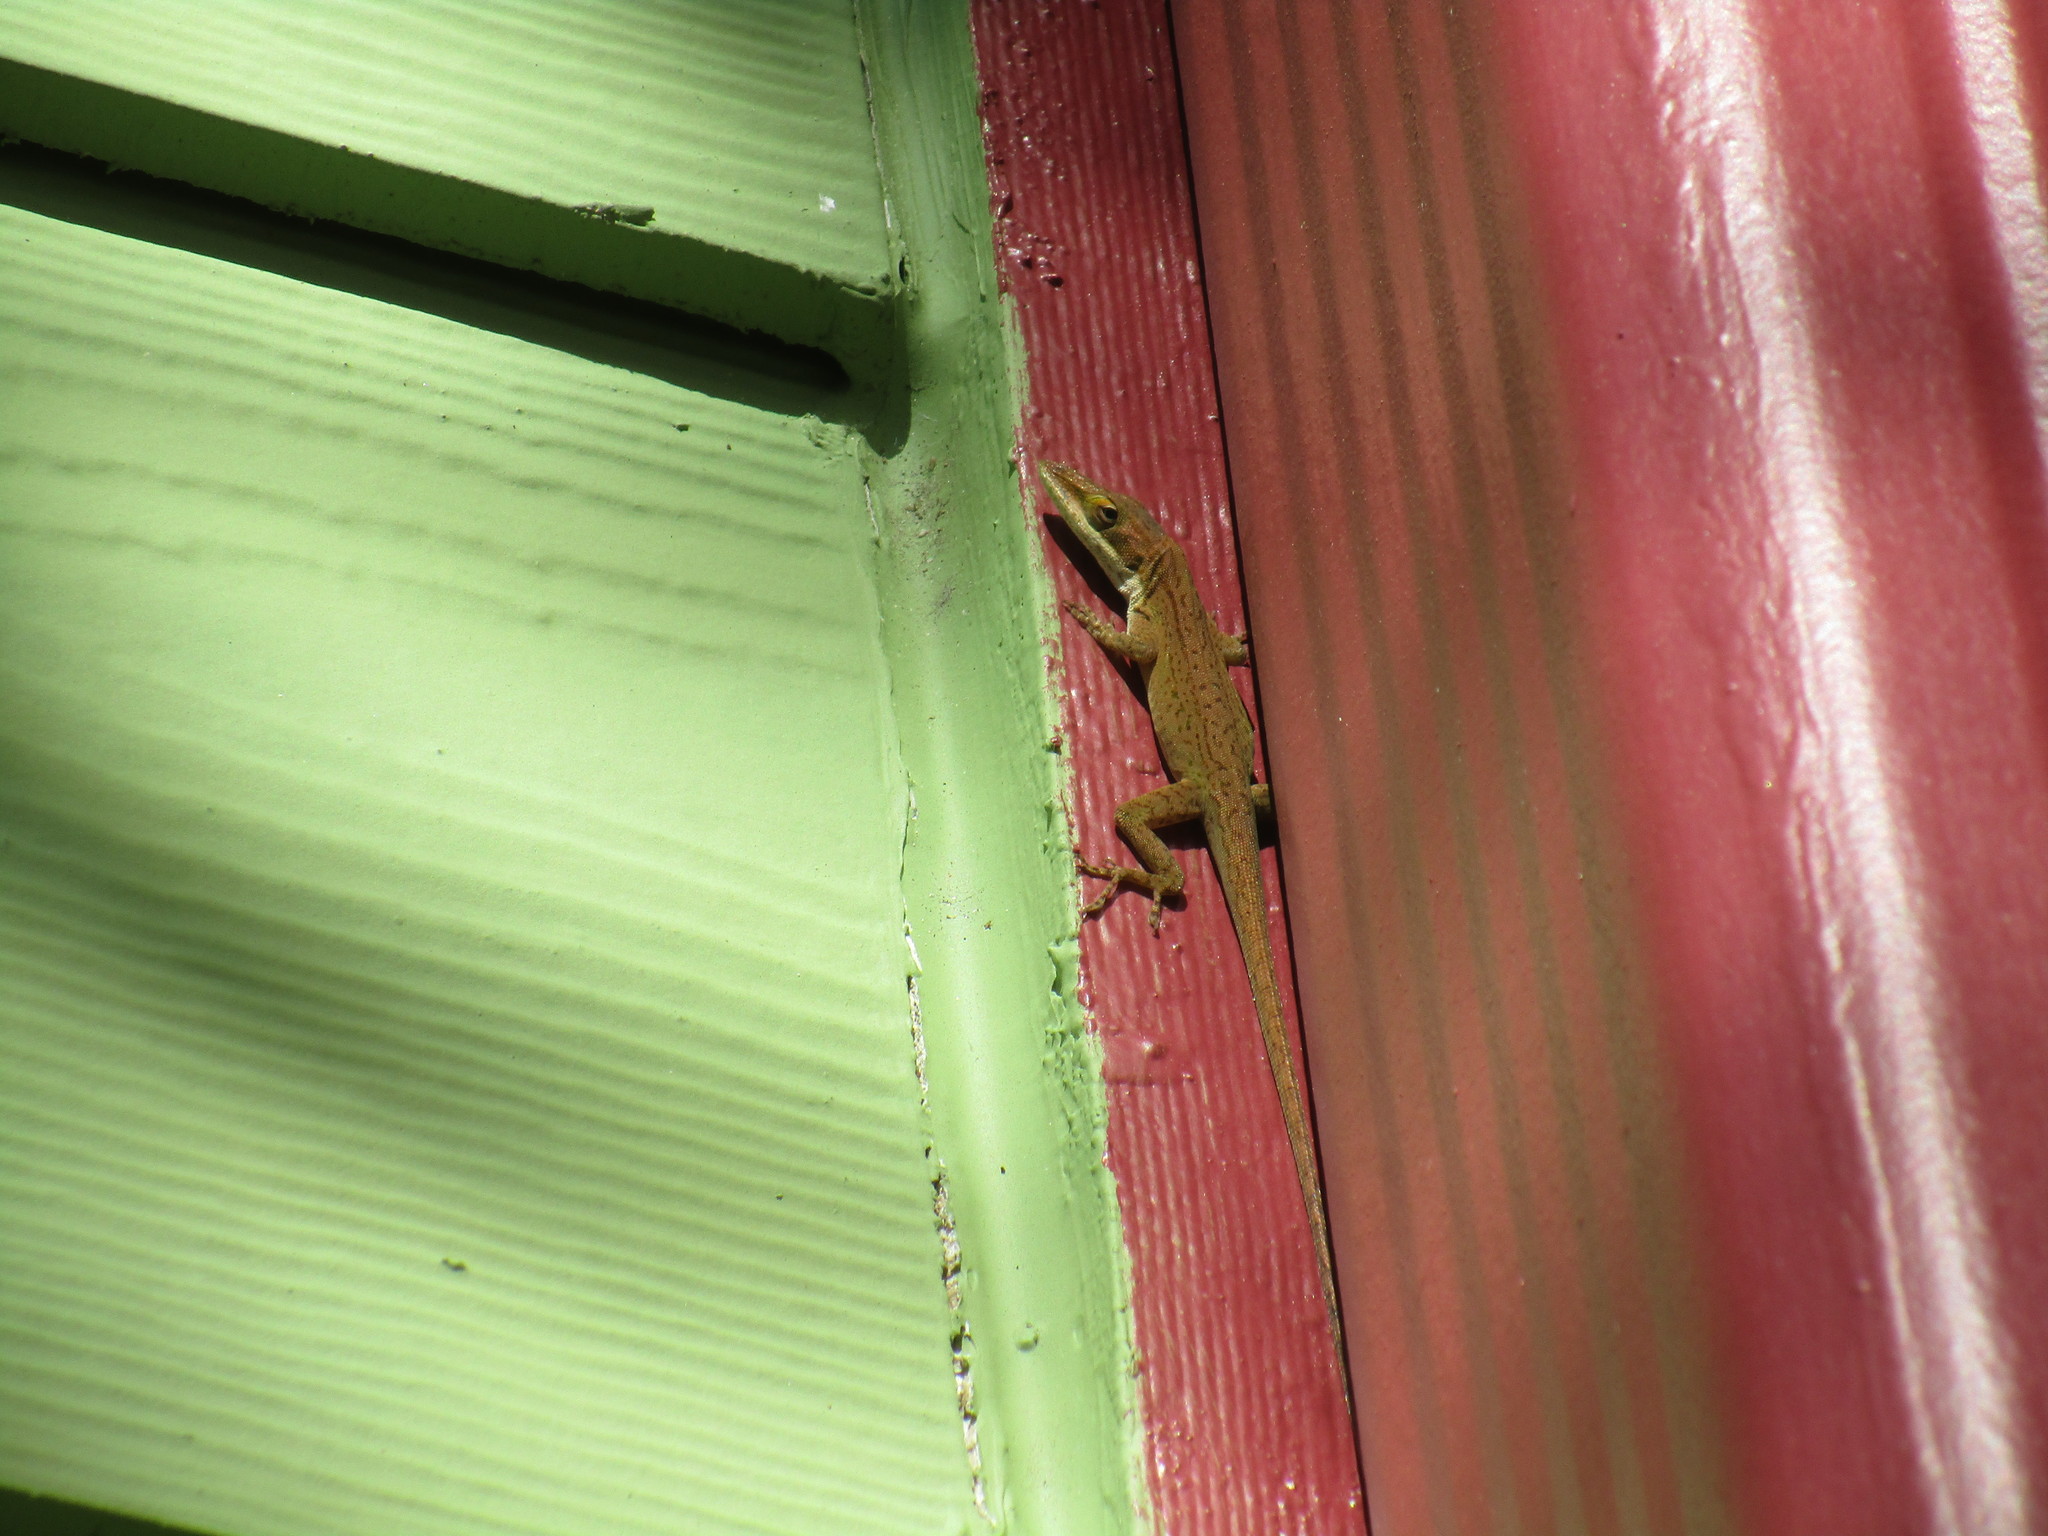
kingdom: Animalia
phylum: Chordata
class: Squamata
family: Dactyloidae
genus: Anolis
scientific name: Anolis carolinensis
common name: Green anole
